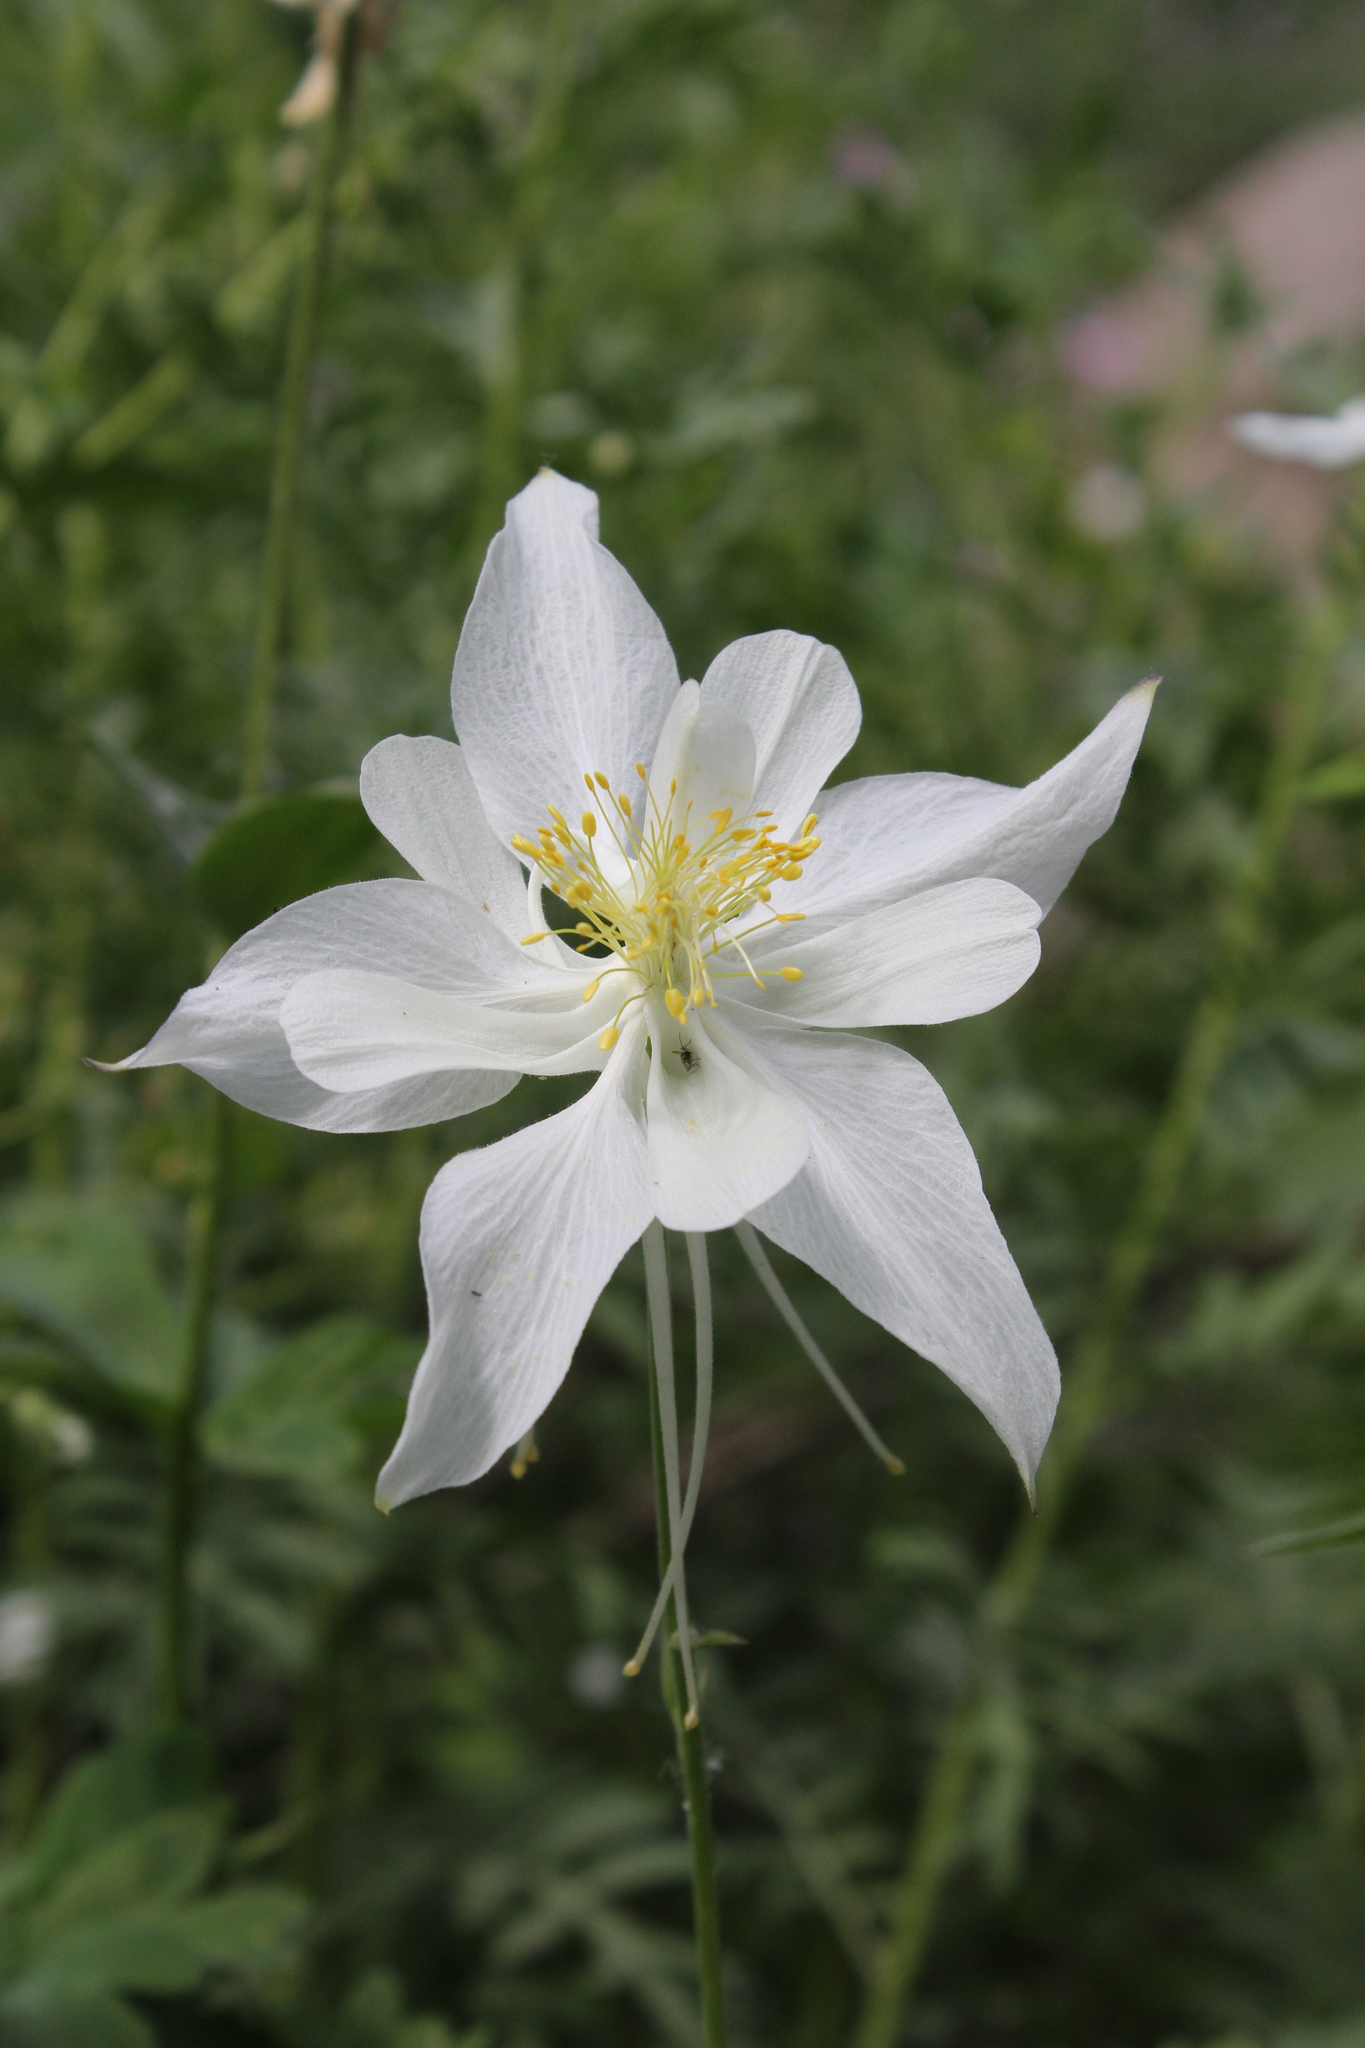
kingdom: Plantae
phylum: Tracheophyta
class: Magnoliopsida
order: Ranunculales
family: Ranunculaceae
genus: Aquilegia
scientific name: Aquilegia coerulea
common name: Rocky mountain columbine
